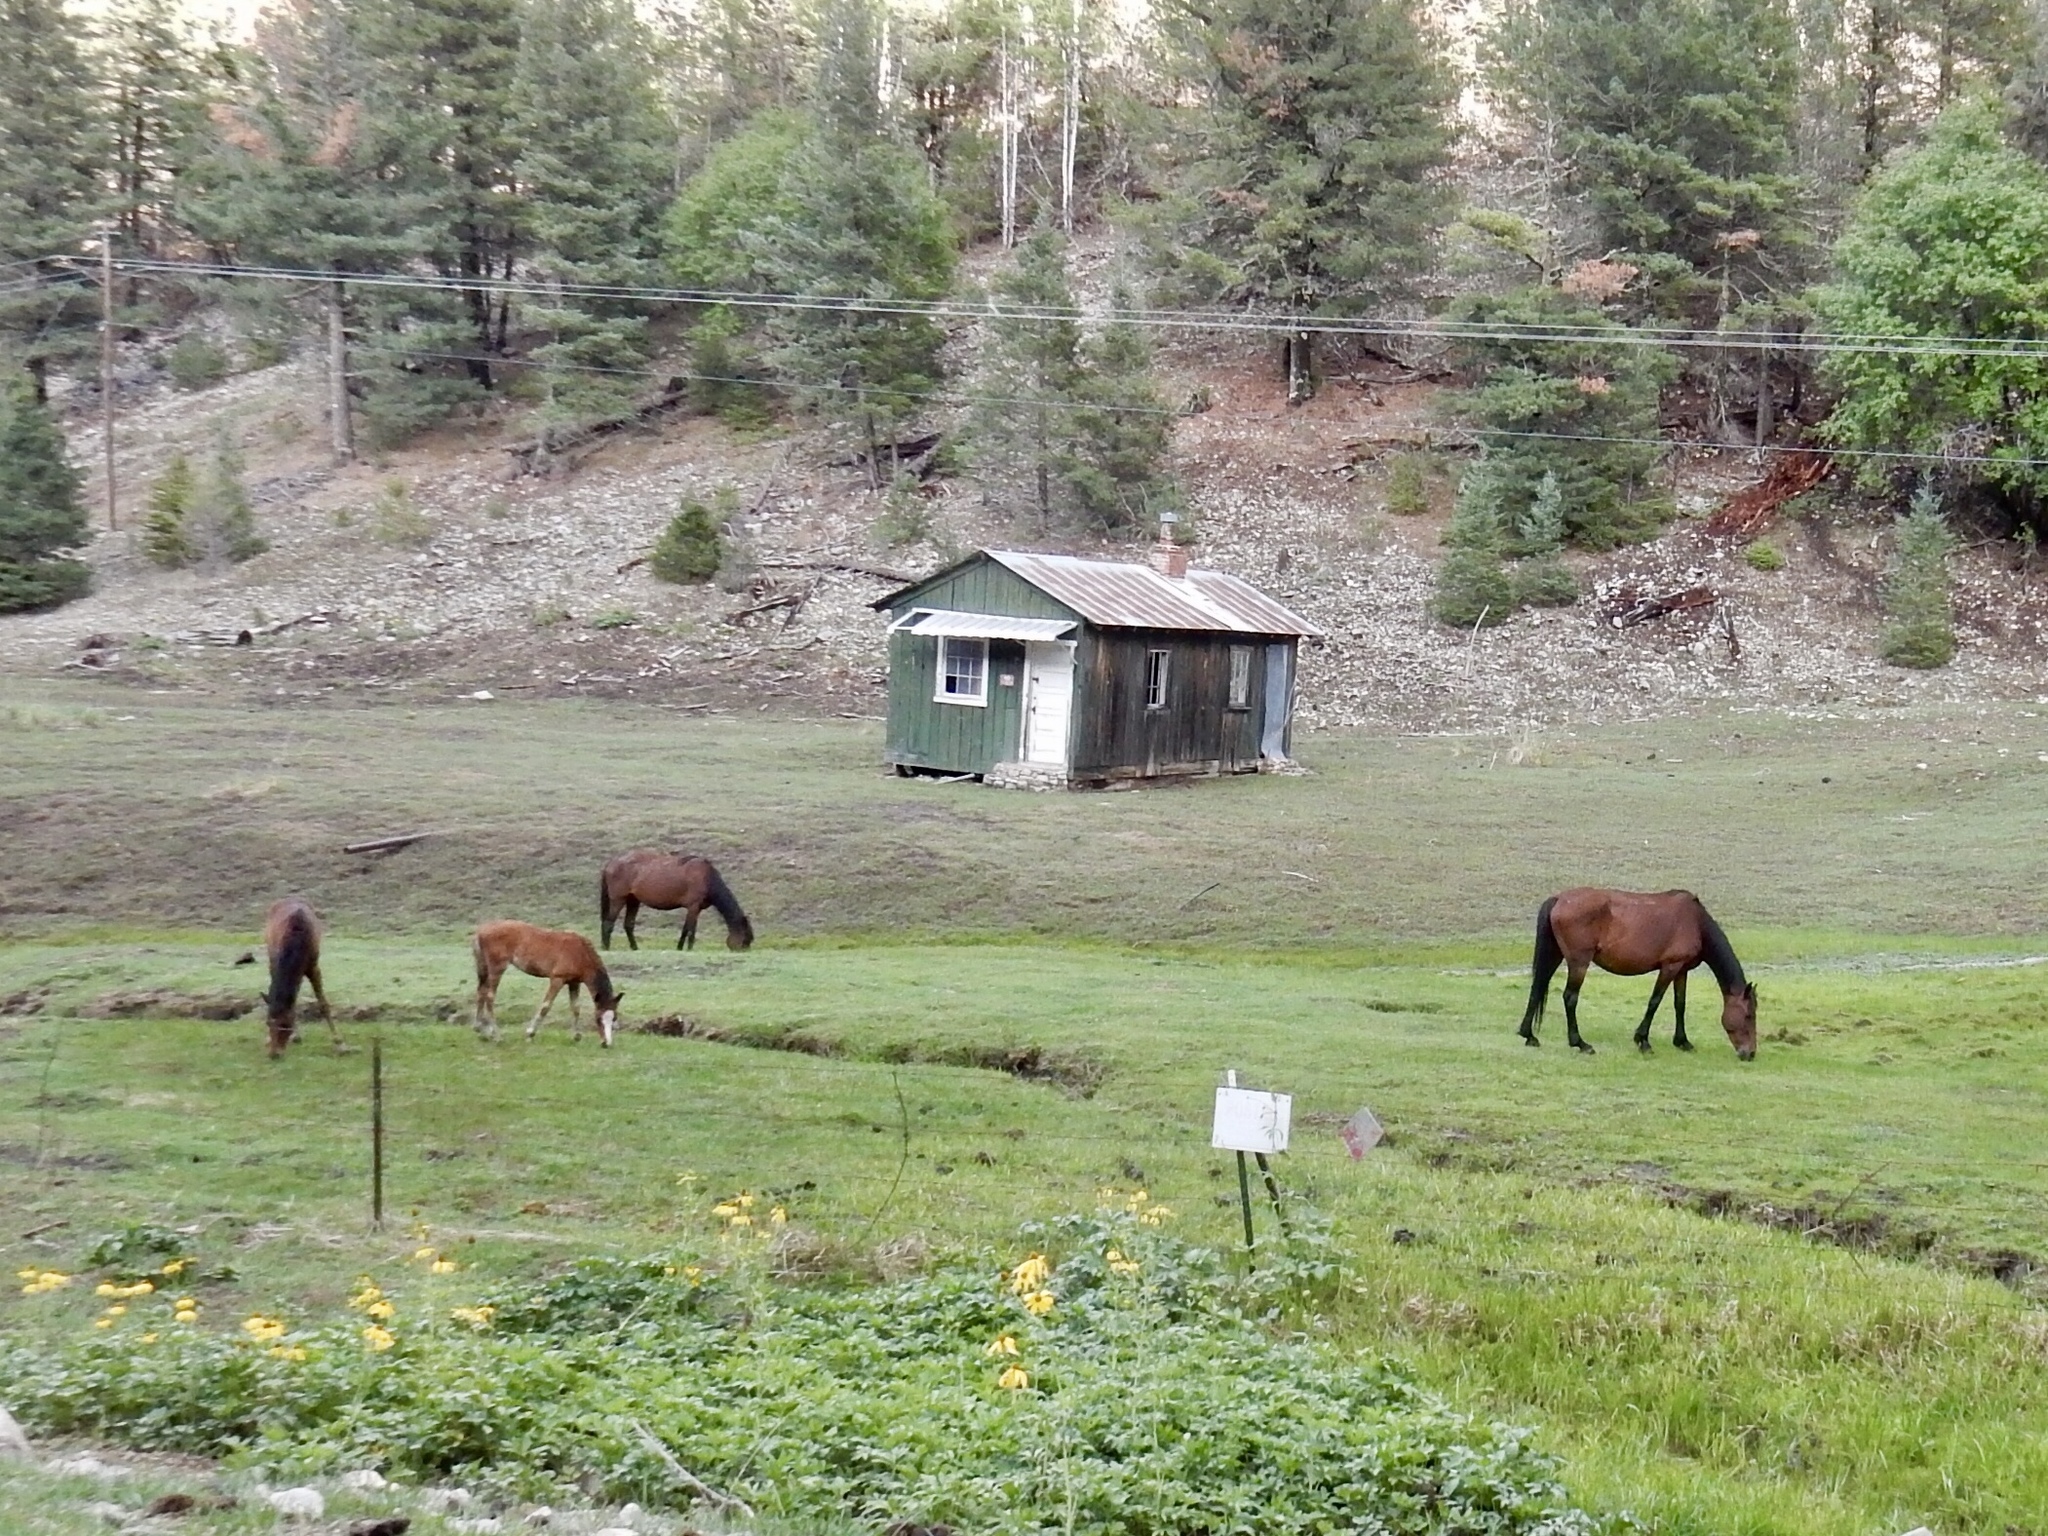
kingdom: Animalia
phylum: Chordata
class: Mammalia
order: Perissodactyla
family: Equidae
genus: Equus
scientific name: Equus caballus
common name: Horse
